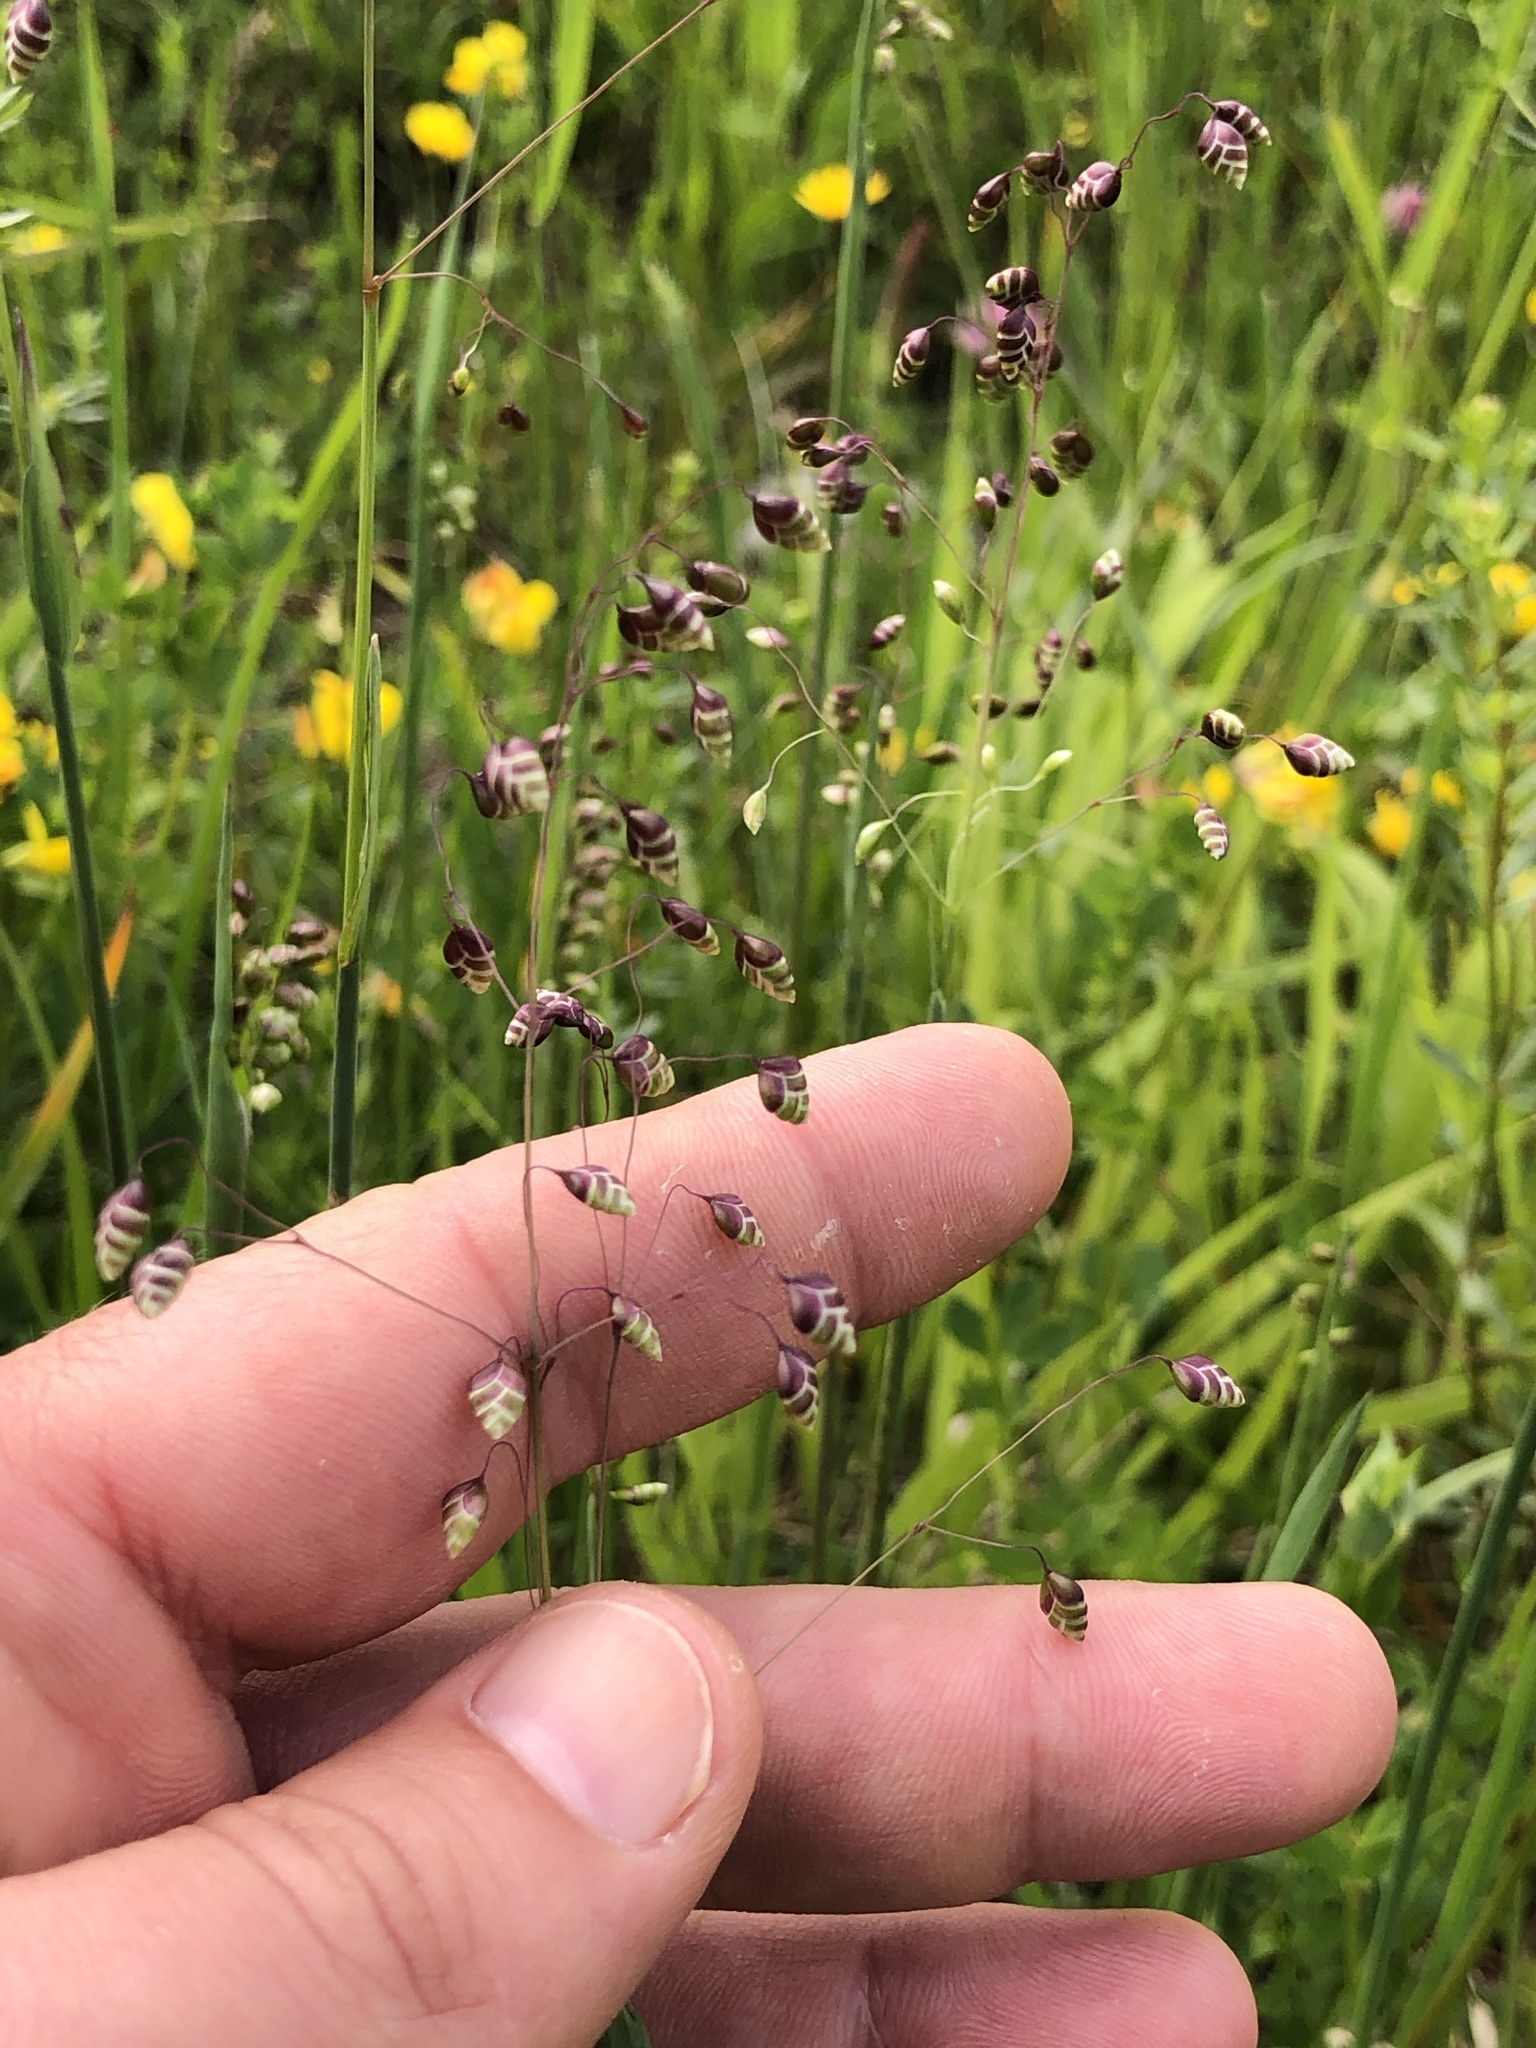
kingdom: Plantae
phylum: Tracheophyta
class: Liliopsida
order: Poales
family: Poaceae
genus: Briza
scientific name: Briza media
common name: Quaking grass
